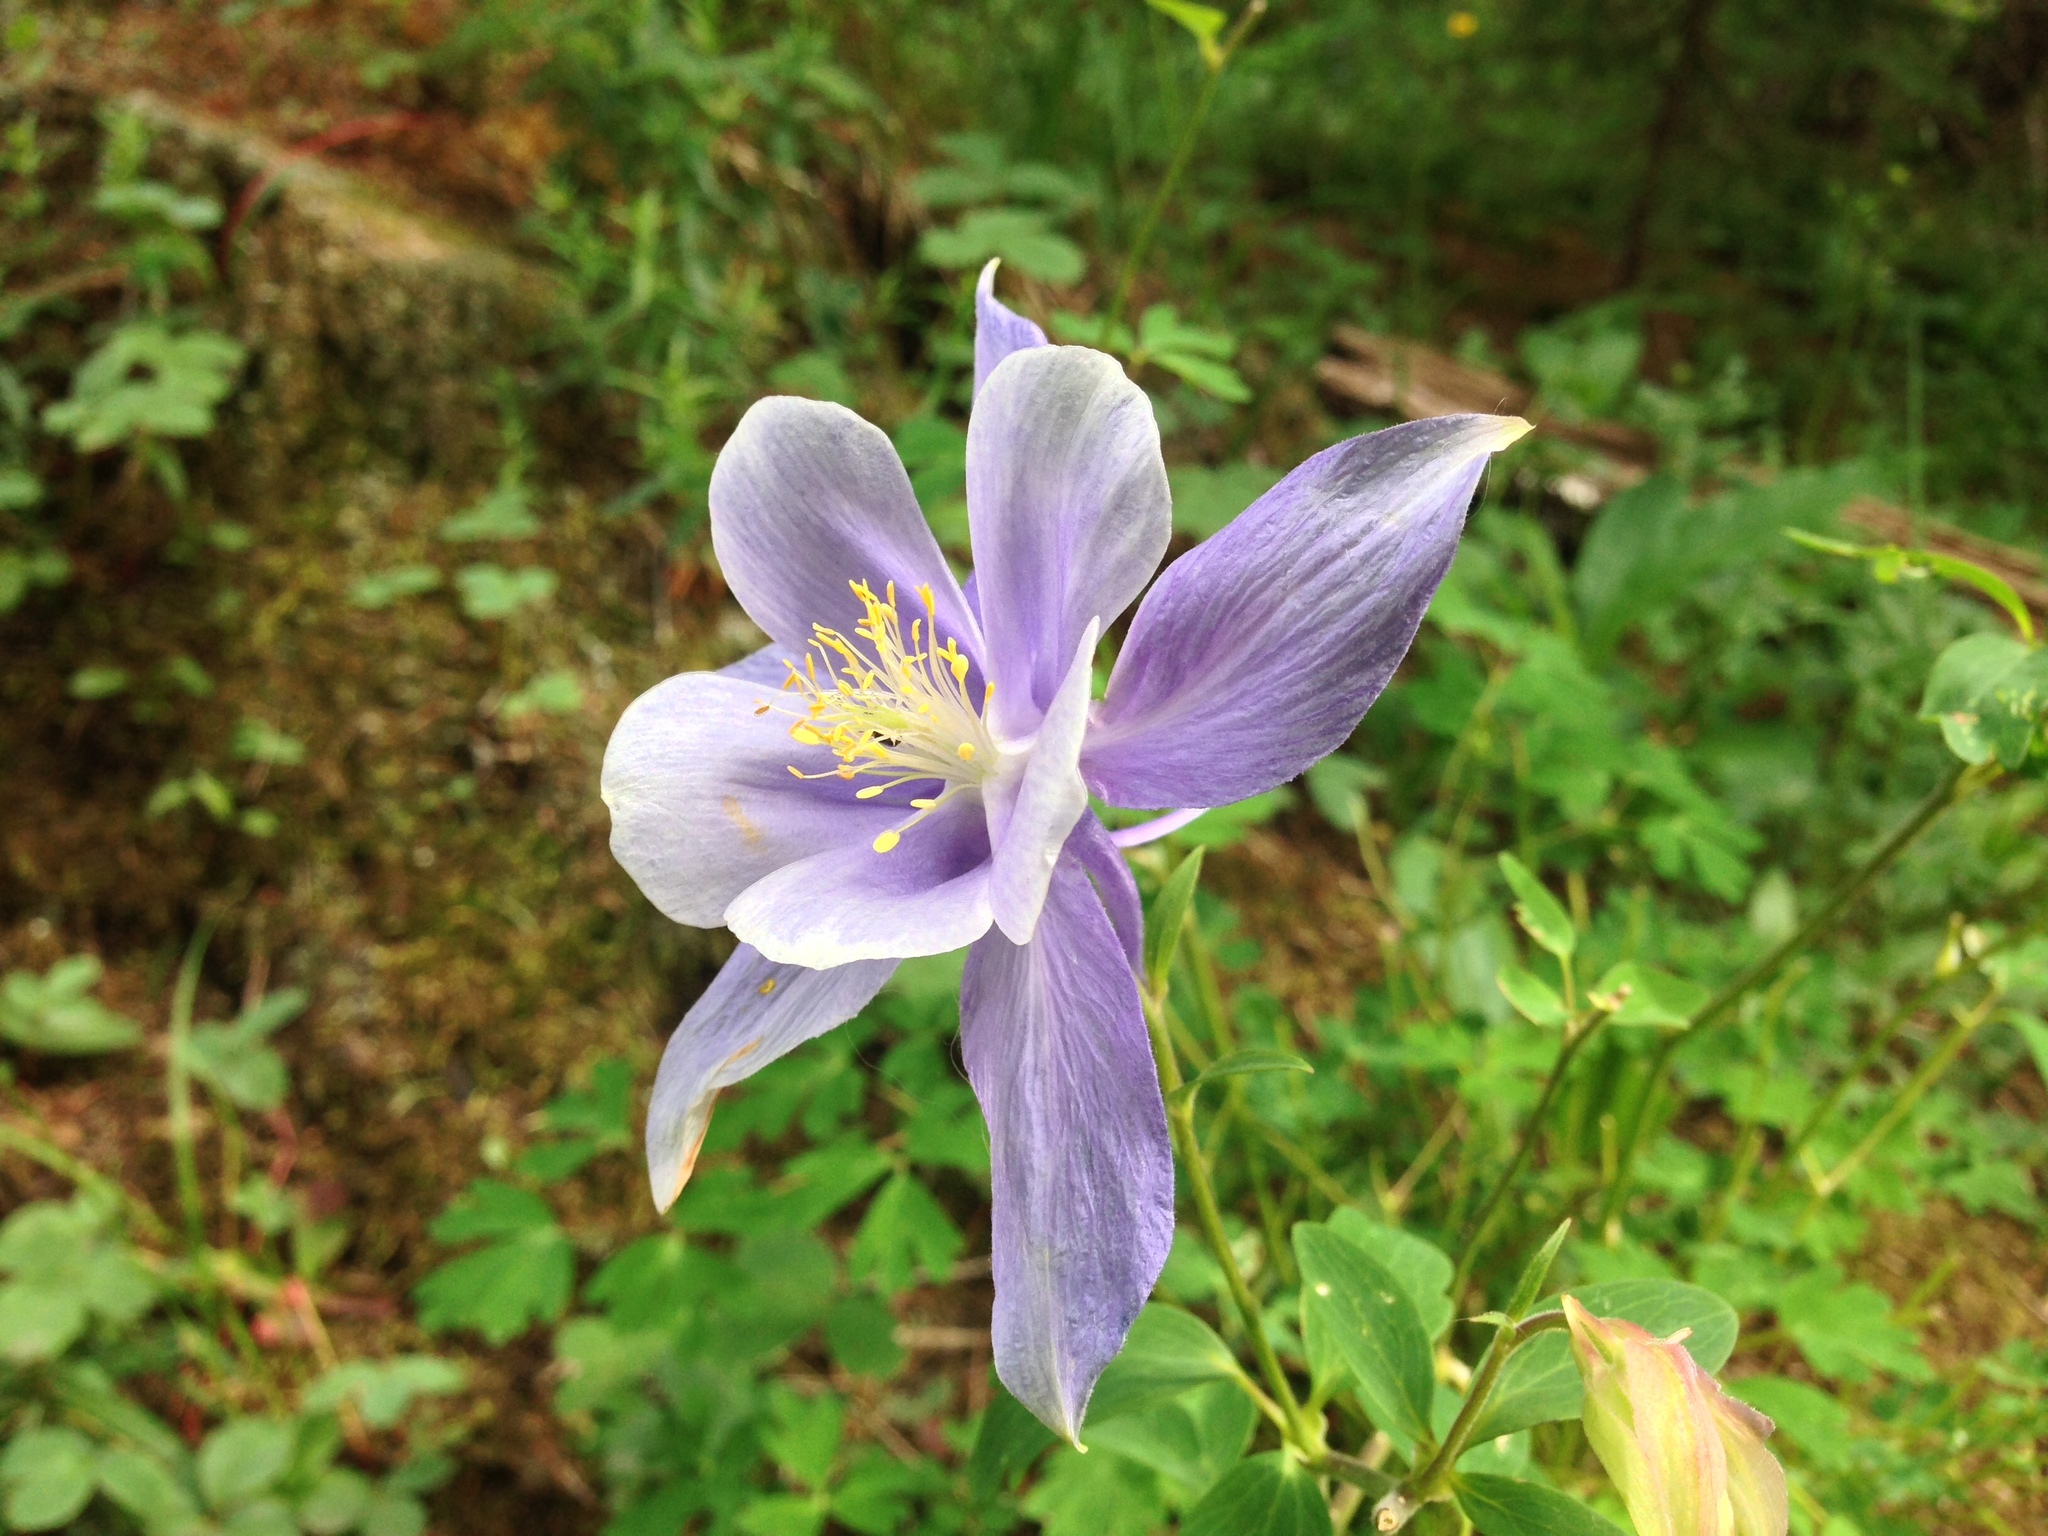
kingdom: Plantae
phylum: Tracheophyta
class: Magnoliopsida
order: Ranunculales
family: Ranunculaceae
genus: Aquilegia
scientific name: Aquilegia coerulea
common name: Rocky mountain columbine
